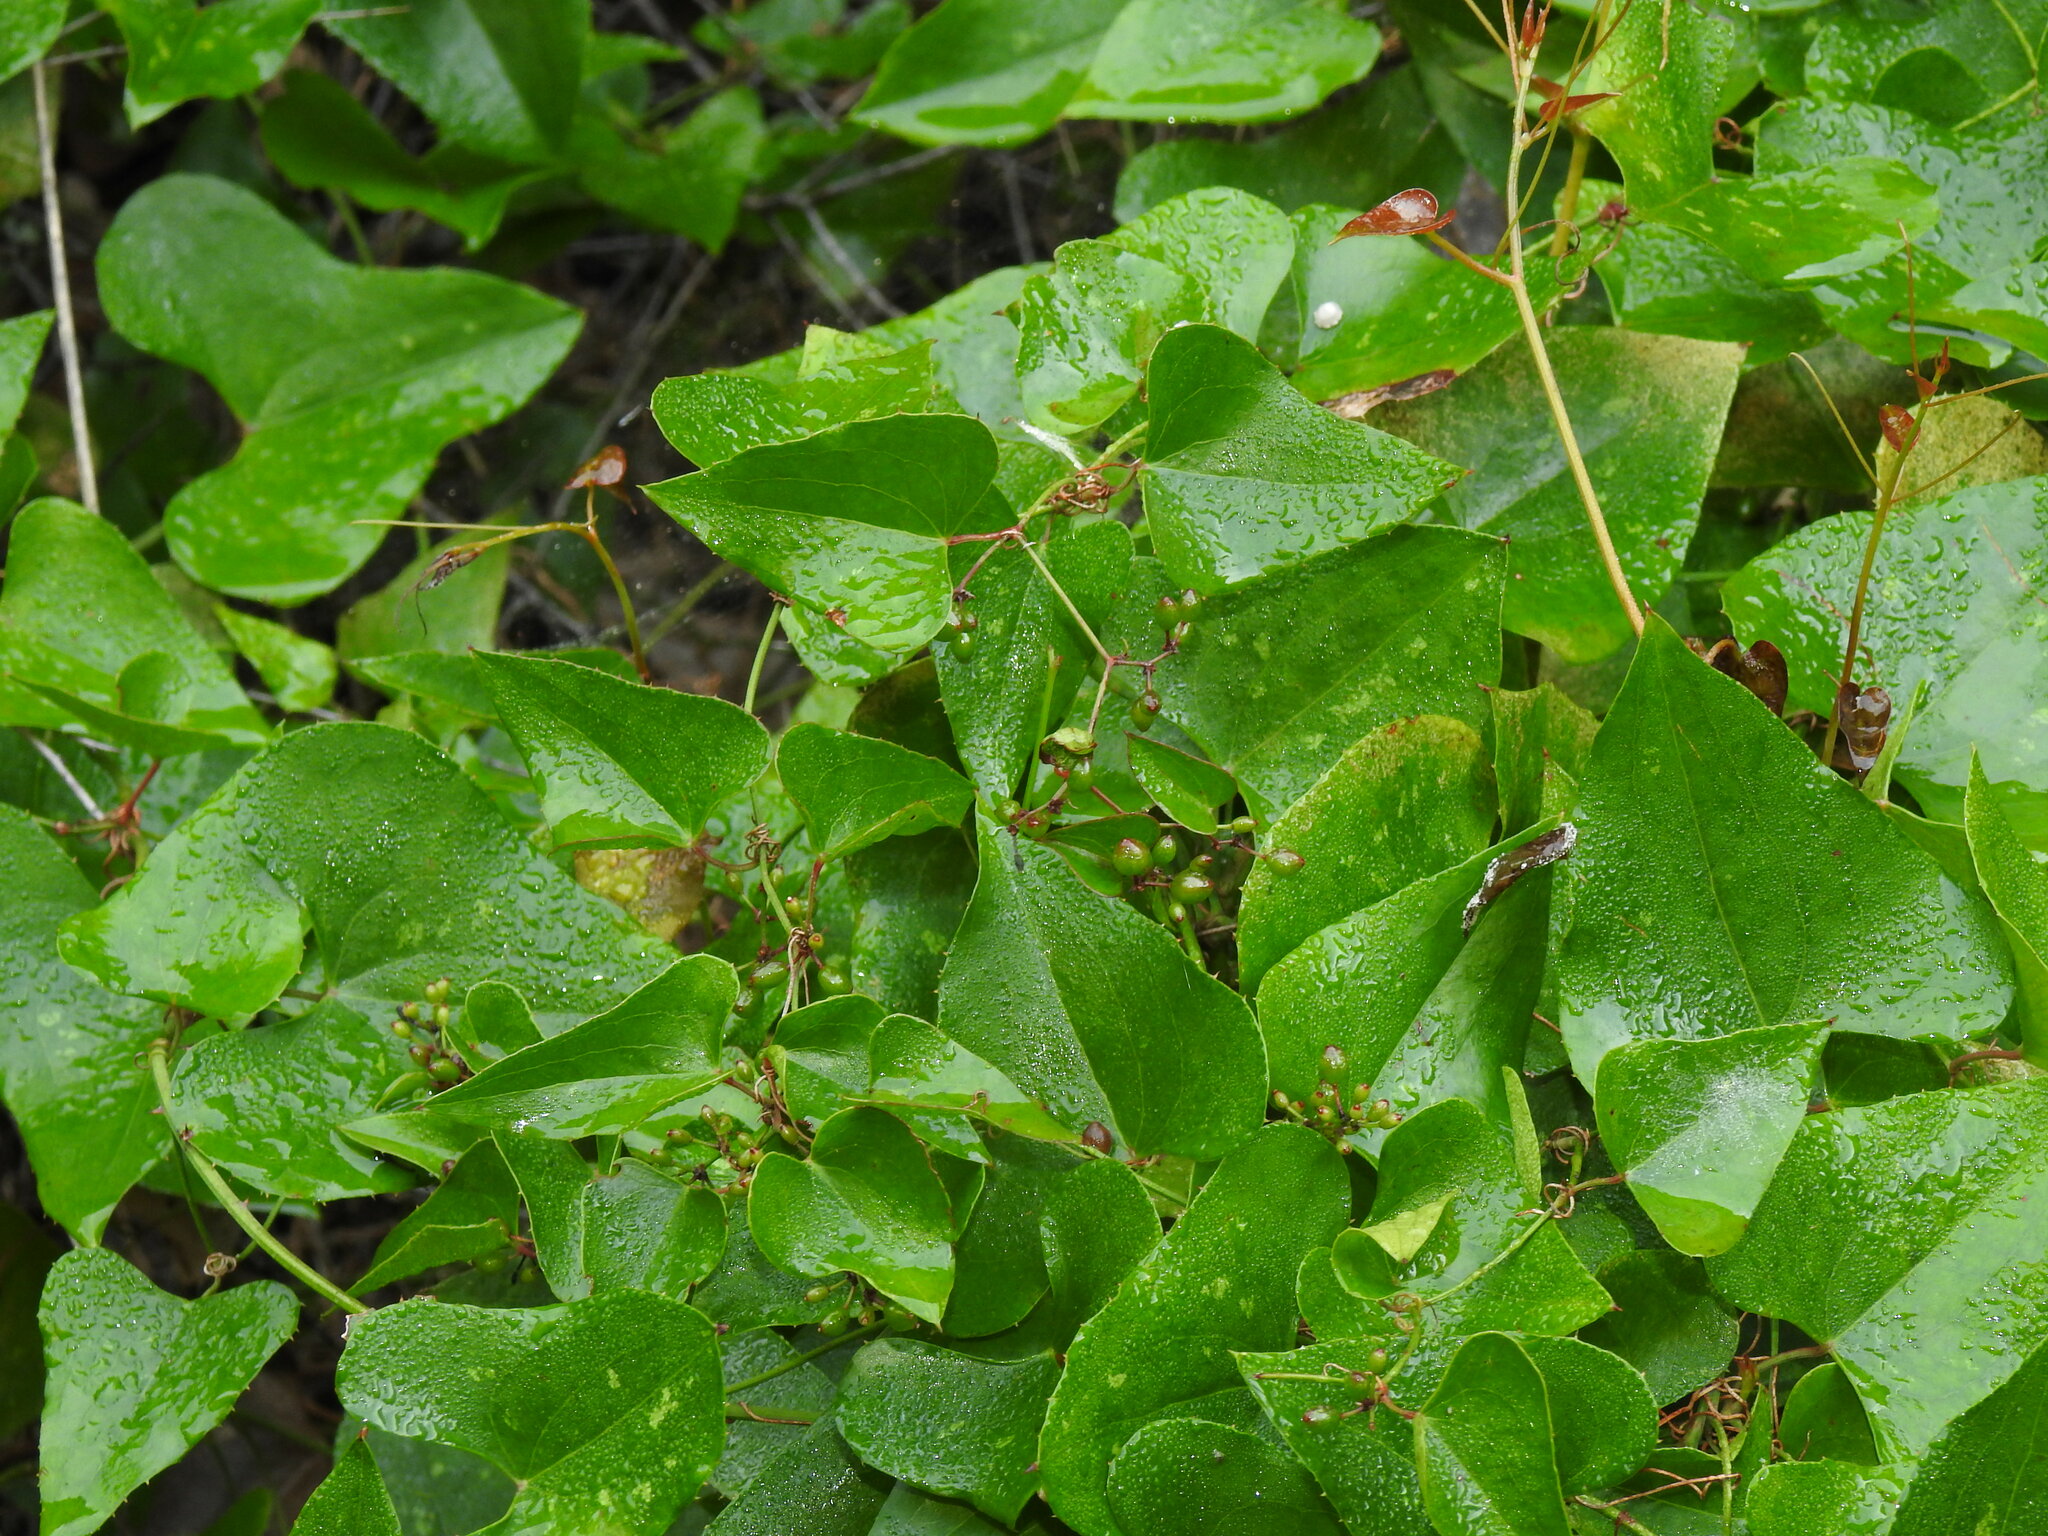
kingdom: Plantae
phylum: Tracheophyta
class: Liliopsida
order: Liliales
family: Smilacaceae
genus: Smilax
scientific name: Smilax aspera
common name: Common smilax
